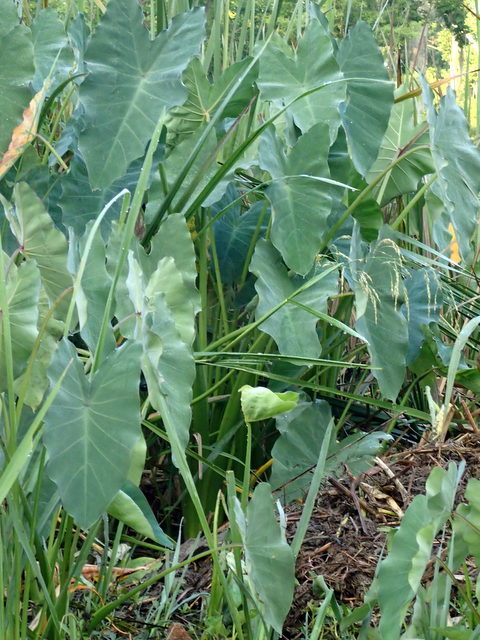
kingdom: Plantae
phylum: Tracheophyta
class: Liliopsida
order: Alismatales
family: Araceae
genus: Colocasia
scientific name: Colocasia esculenta
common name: Taro
